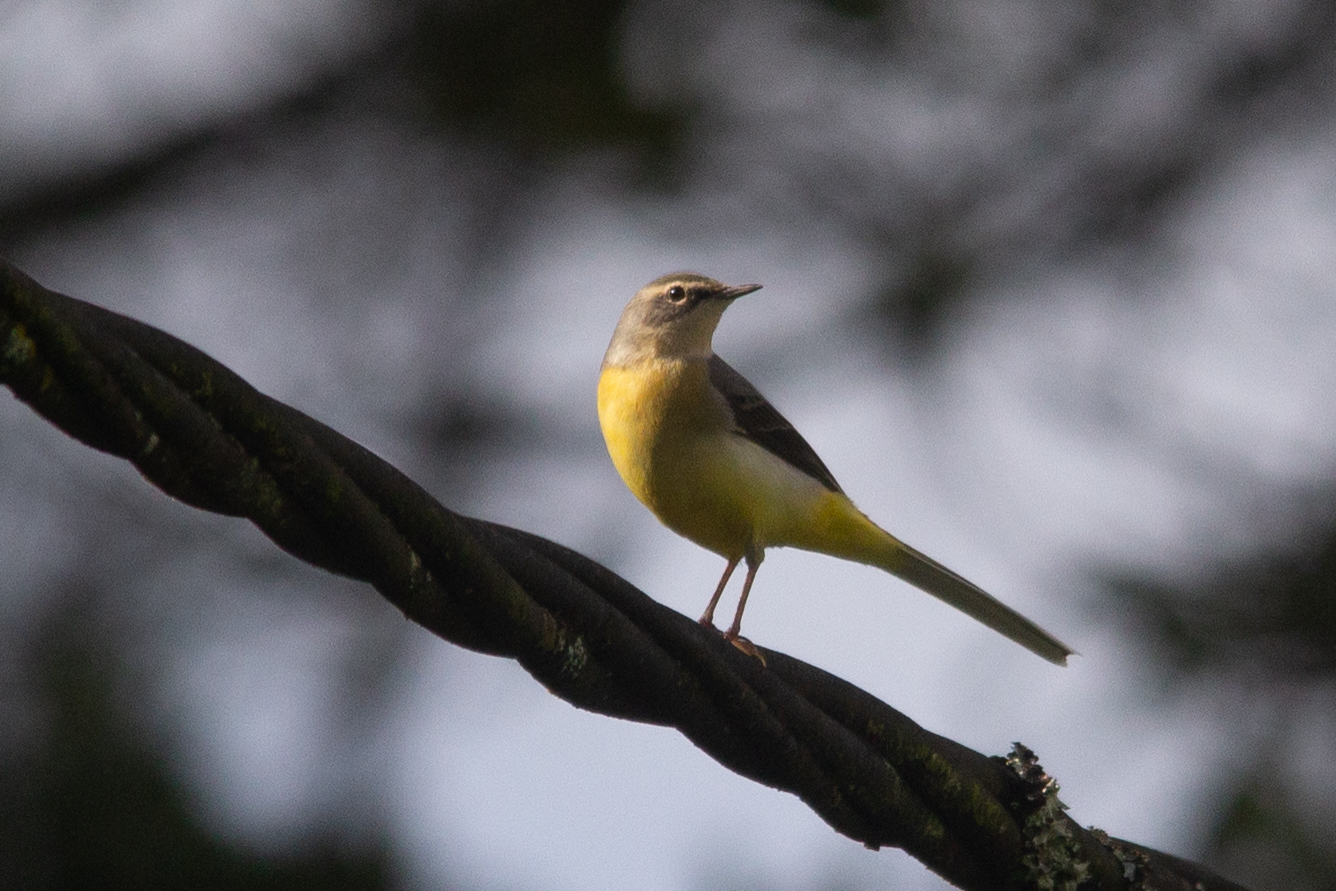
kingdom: Animalia
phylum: Chordata
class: Aves
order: Passeriformes
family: Motacillidae
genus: Motacilla
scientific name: Motacilla cinerea
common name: Grey wagtail
